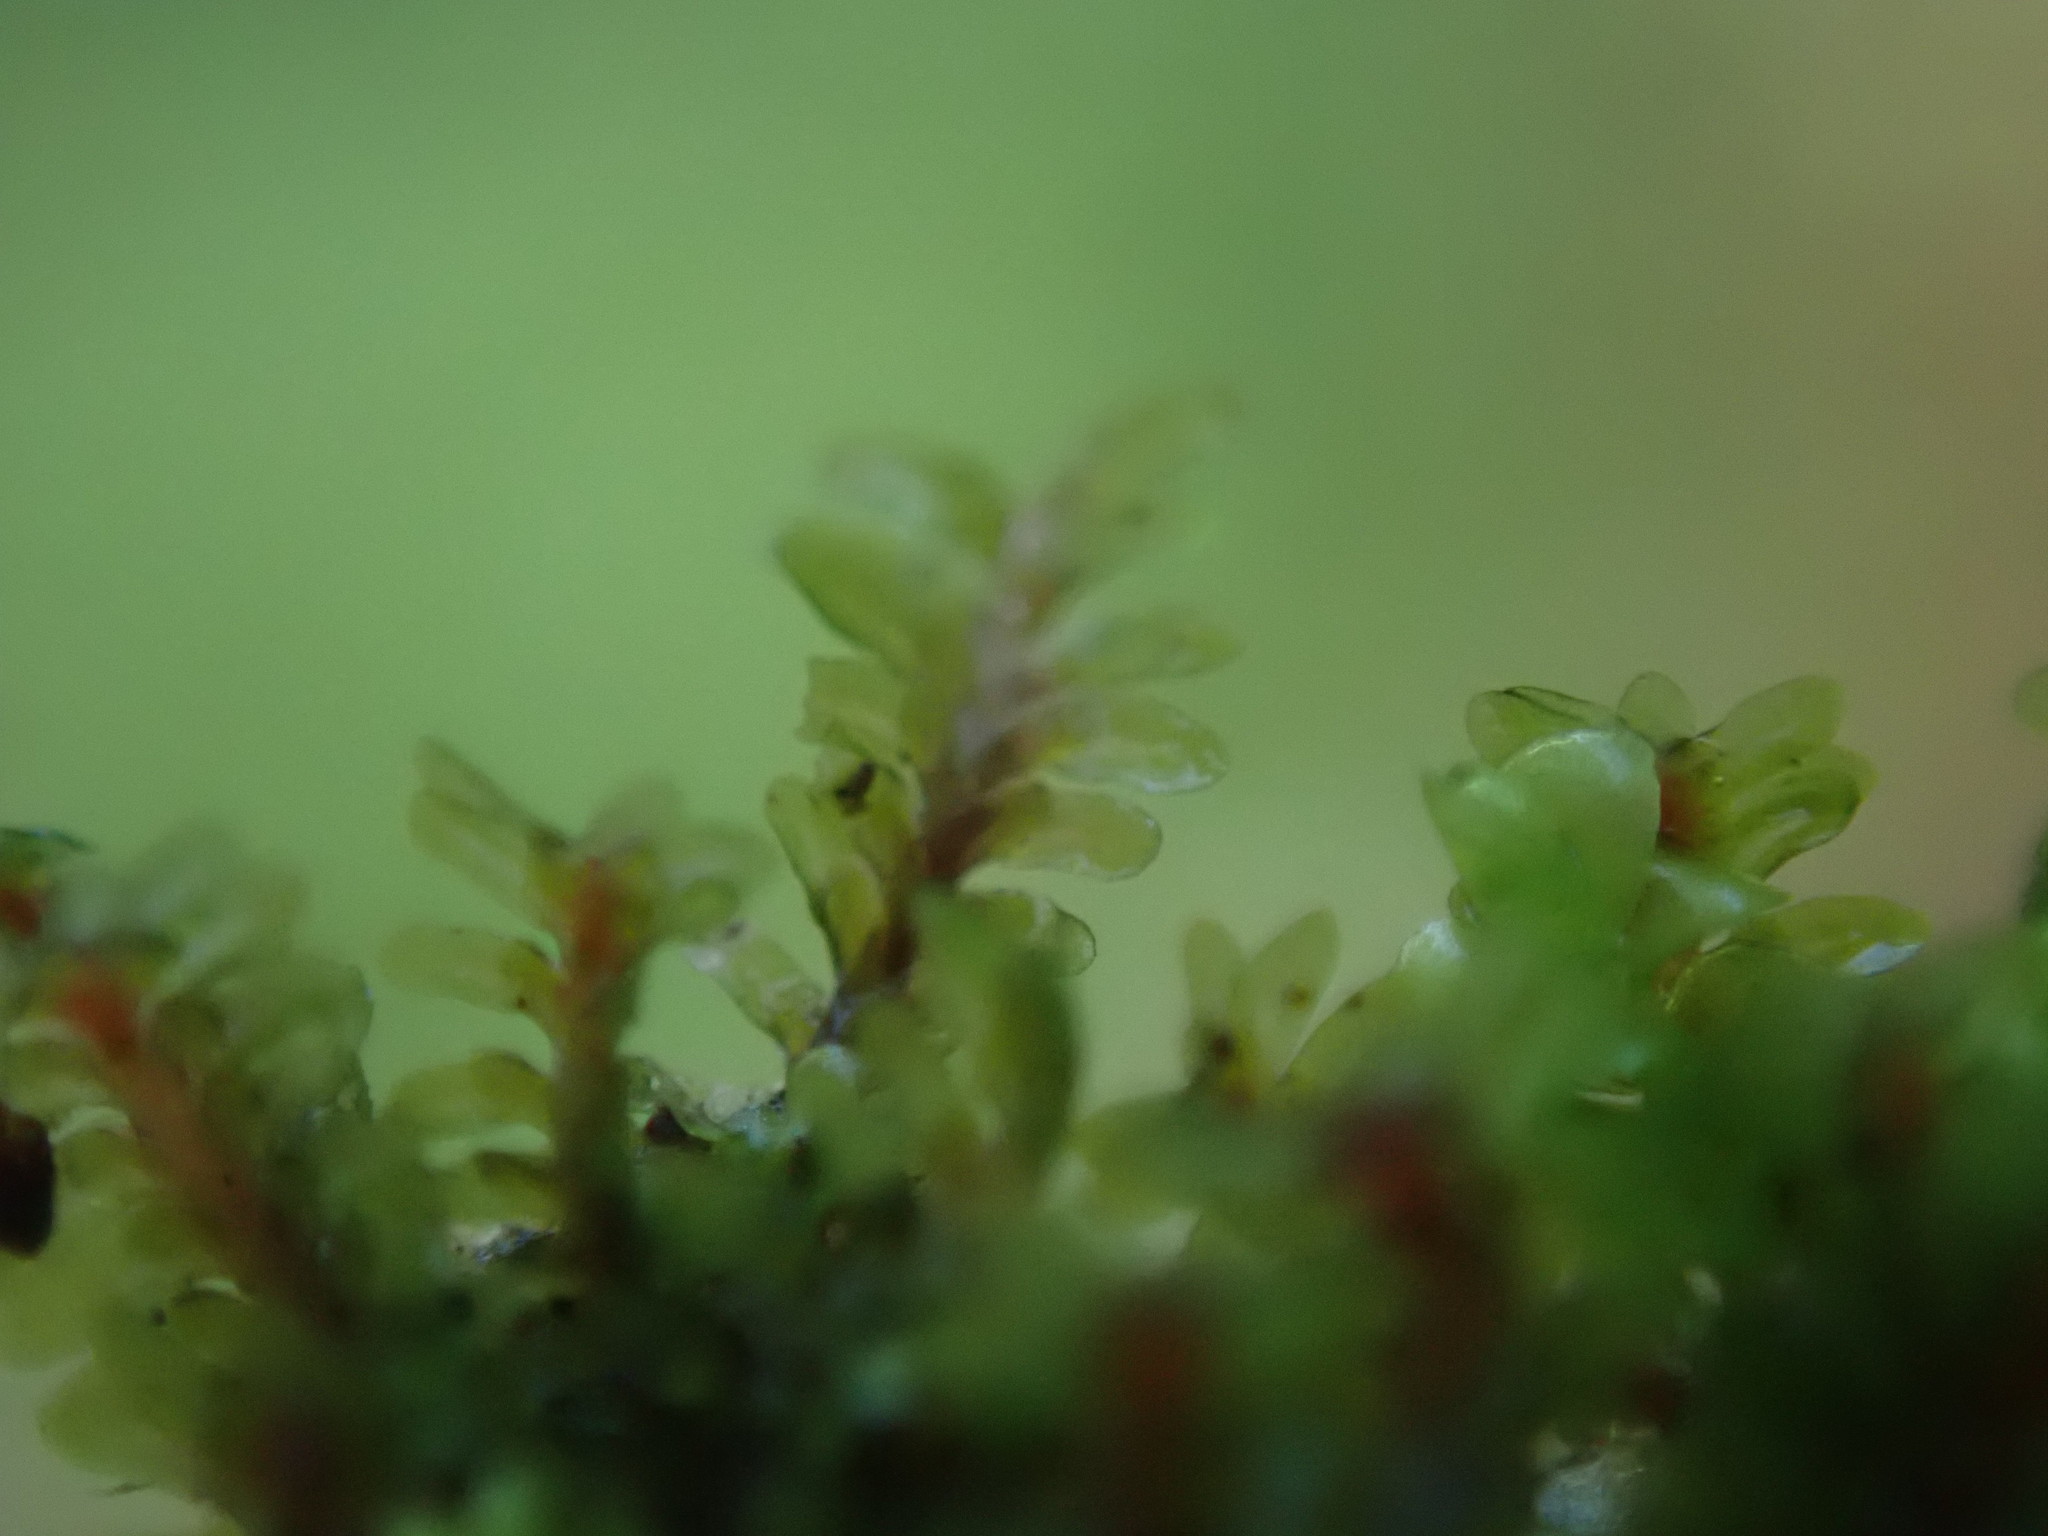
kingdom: Plantae
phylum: Marchantiophyta
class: Jungermanniopsida
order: Jungermanniales
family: Scapaniaceae
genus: Diplophyllum
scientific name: Diplophyllum albicans
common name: White earwort
